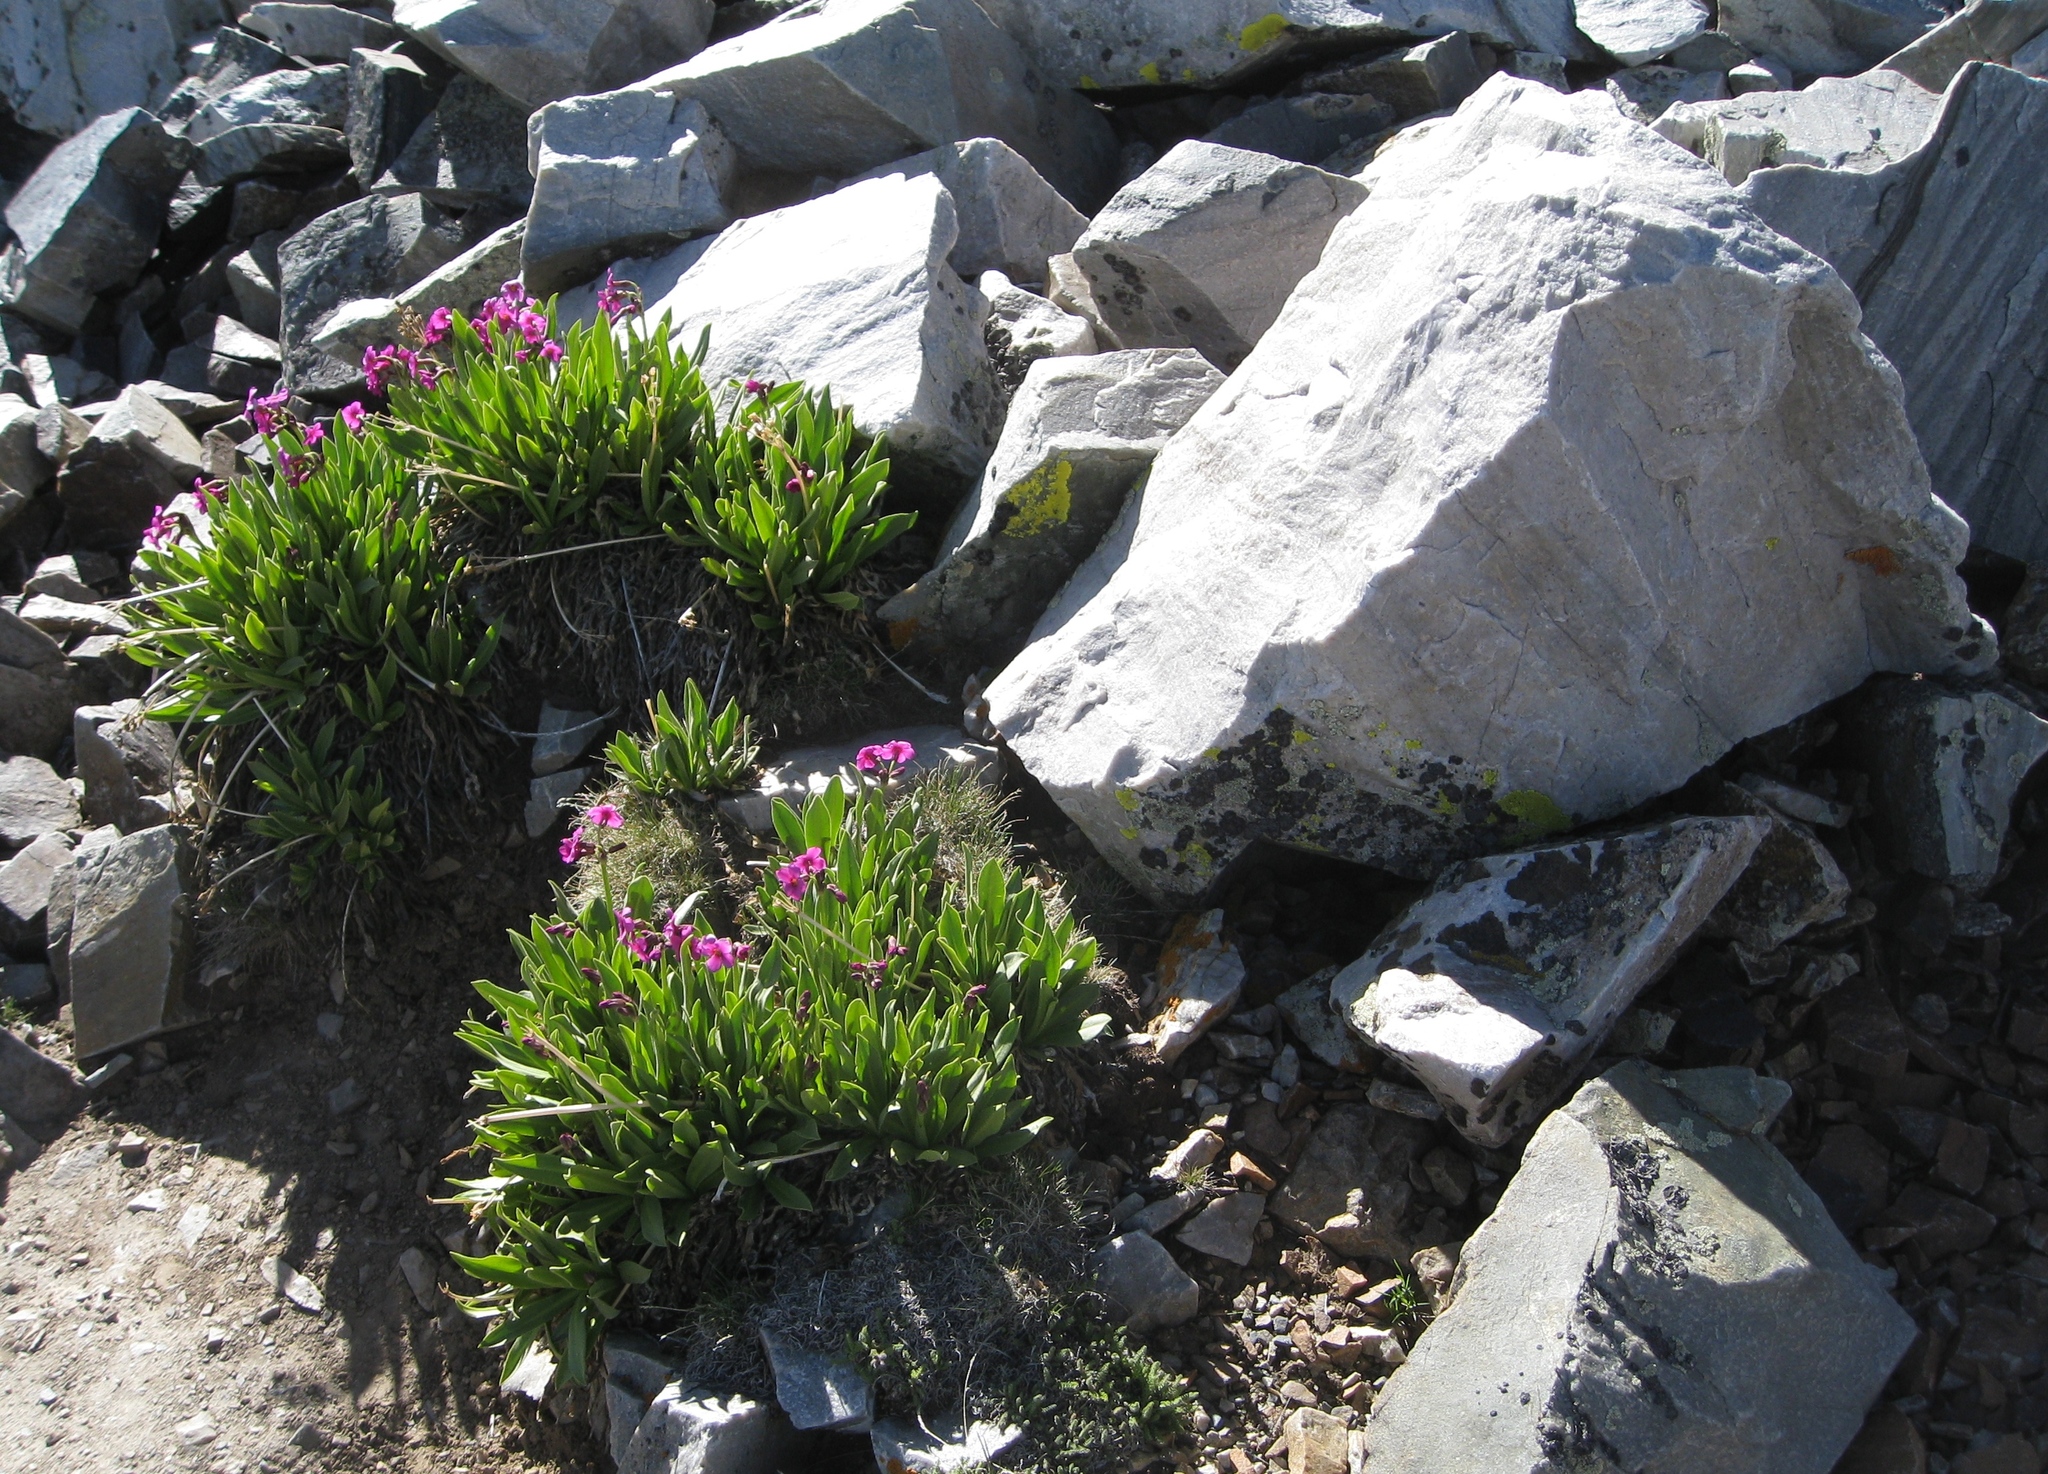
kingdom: Plantae
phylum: Tracheophyta
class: Magnoliopsida
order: Ericales
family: Primulaceae
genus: Primula
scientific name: Primula parryi
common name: Parry's primrose
